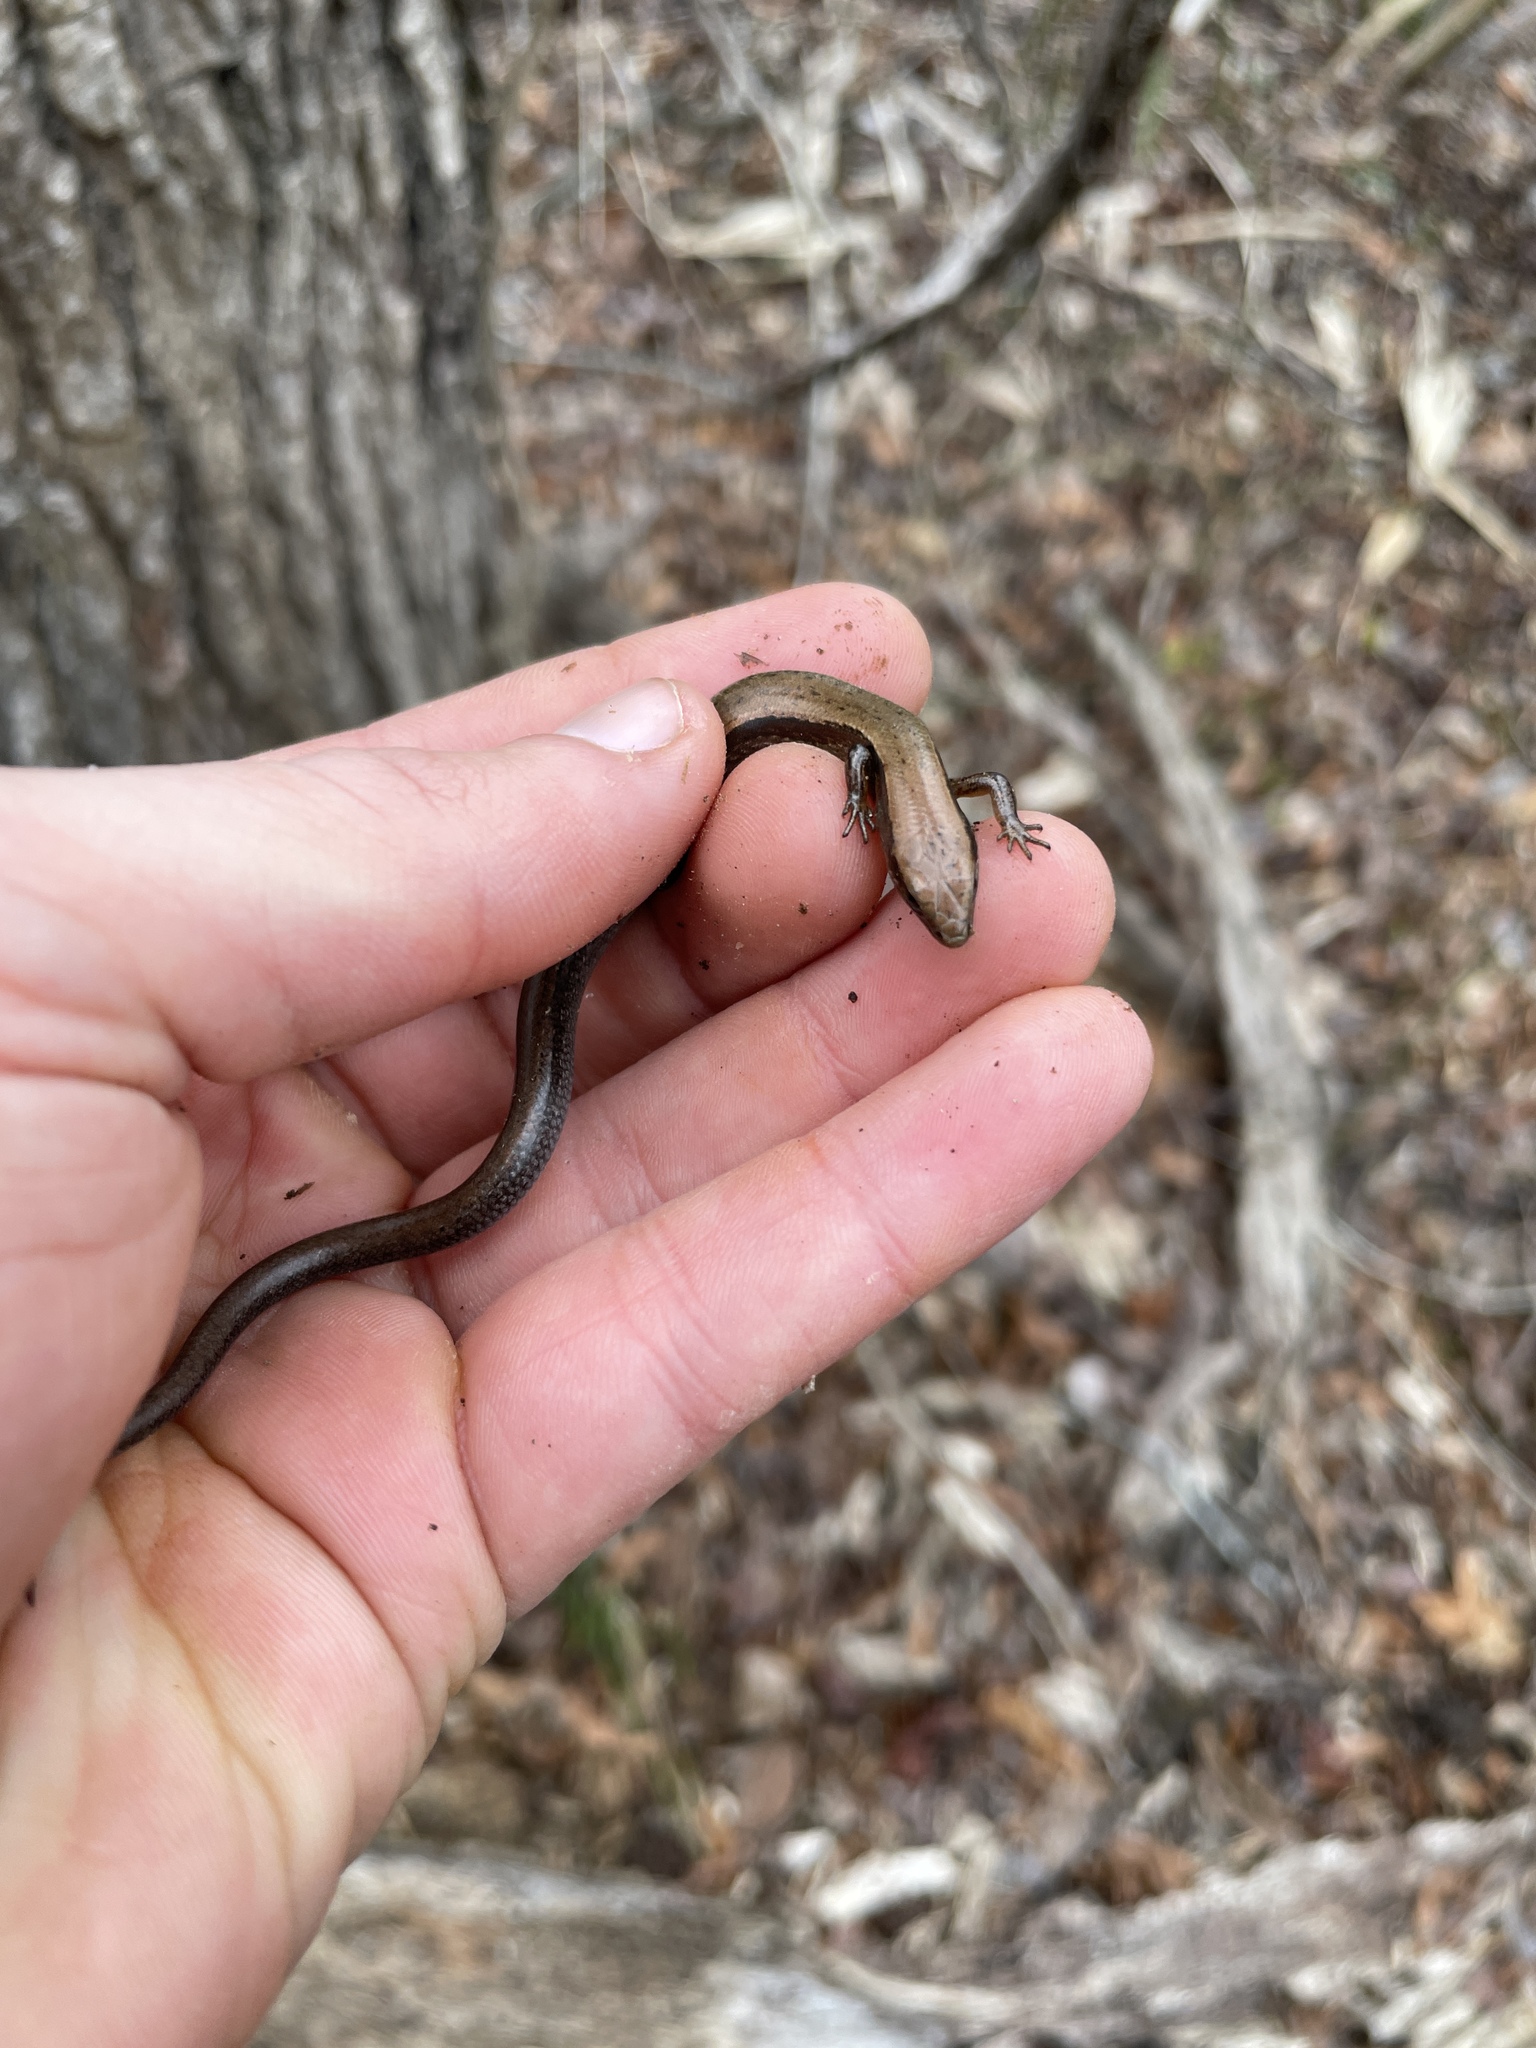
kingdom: Animalia
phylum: Chordata
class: Squamata
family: Scincidae
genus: Scincella
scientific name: Scincella lateralis
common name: Ground skink
